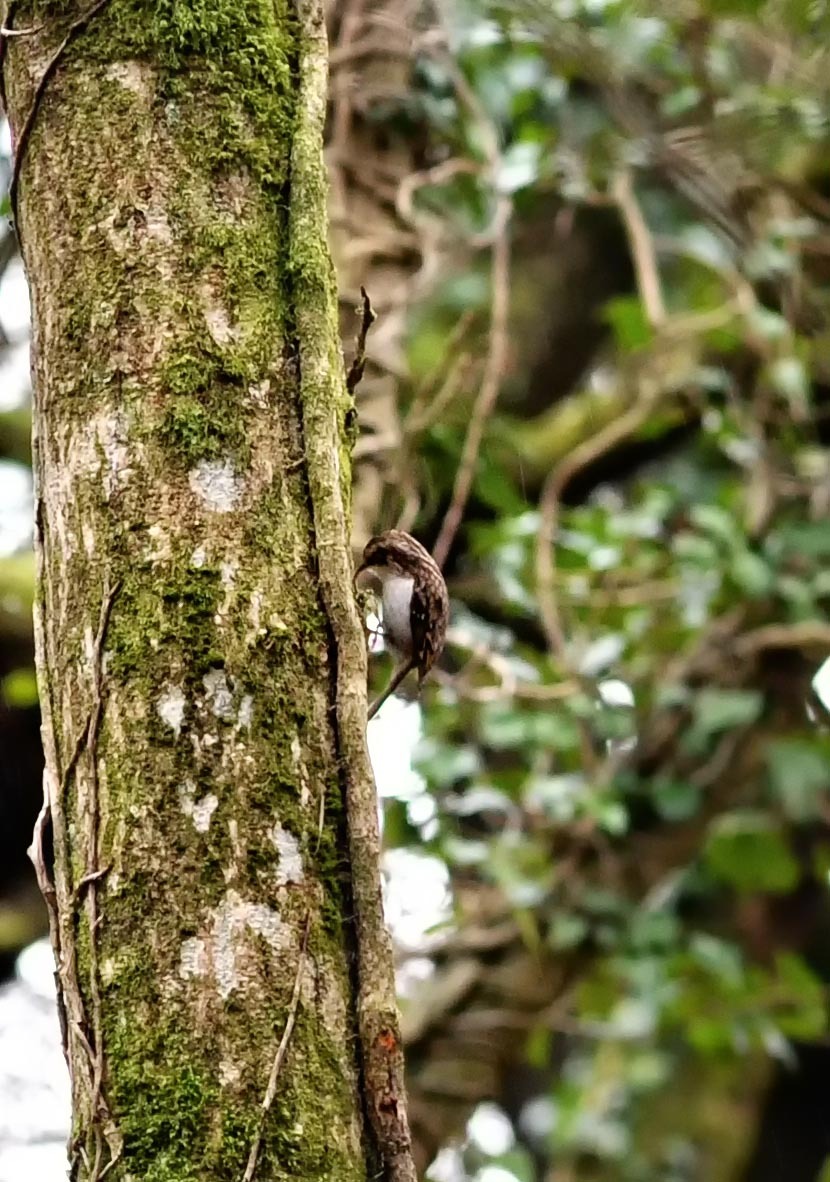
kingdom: Animalia
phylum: Chordata
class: Aves
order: Passeriformes
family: Certhiidae
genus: Certhia
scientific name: Certhia familiaris
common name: Eurasian treecreeper
